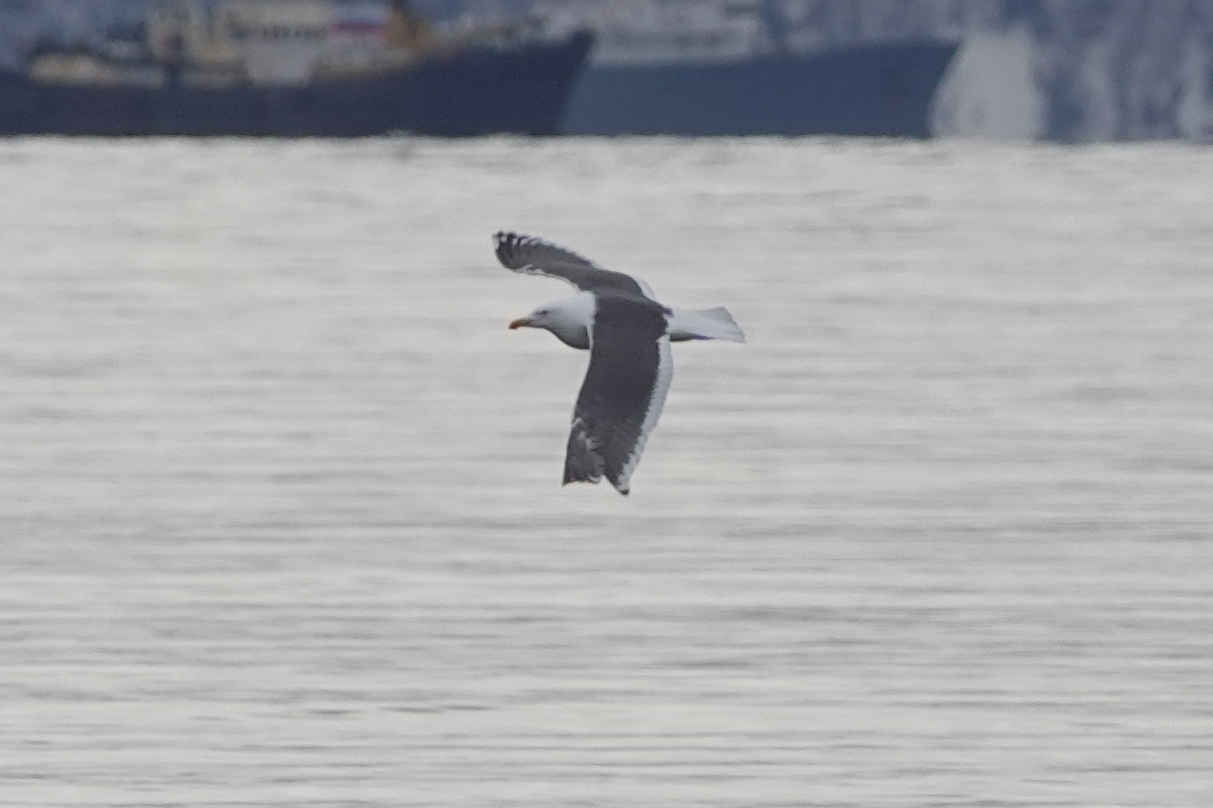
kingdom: Animalia
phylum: Chordata
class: Aves
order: Charadriiformes
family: Laridae
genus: Larus
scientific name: Larus schistisagus
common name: Slaty-backed gull
